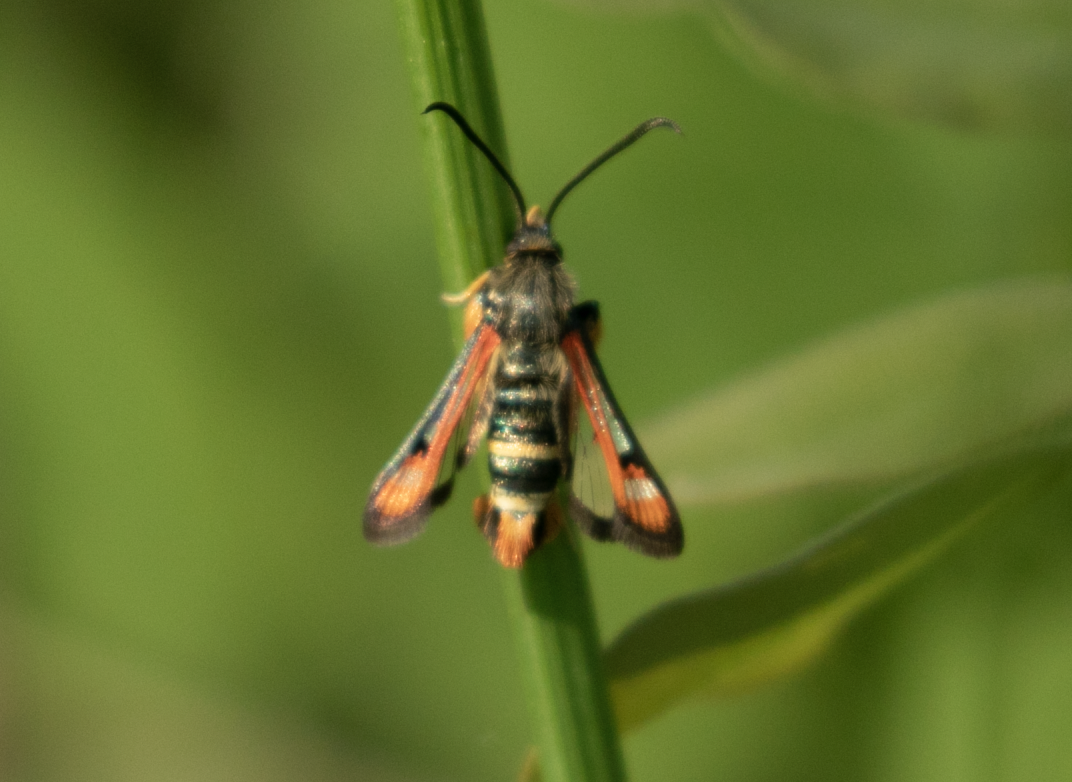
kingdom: Animalia
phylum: Arthropoda
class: Insecta
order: Lepidoptera
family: Sesiidae
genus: Pyropteron
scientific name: Pyropteron chrysidiforme
